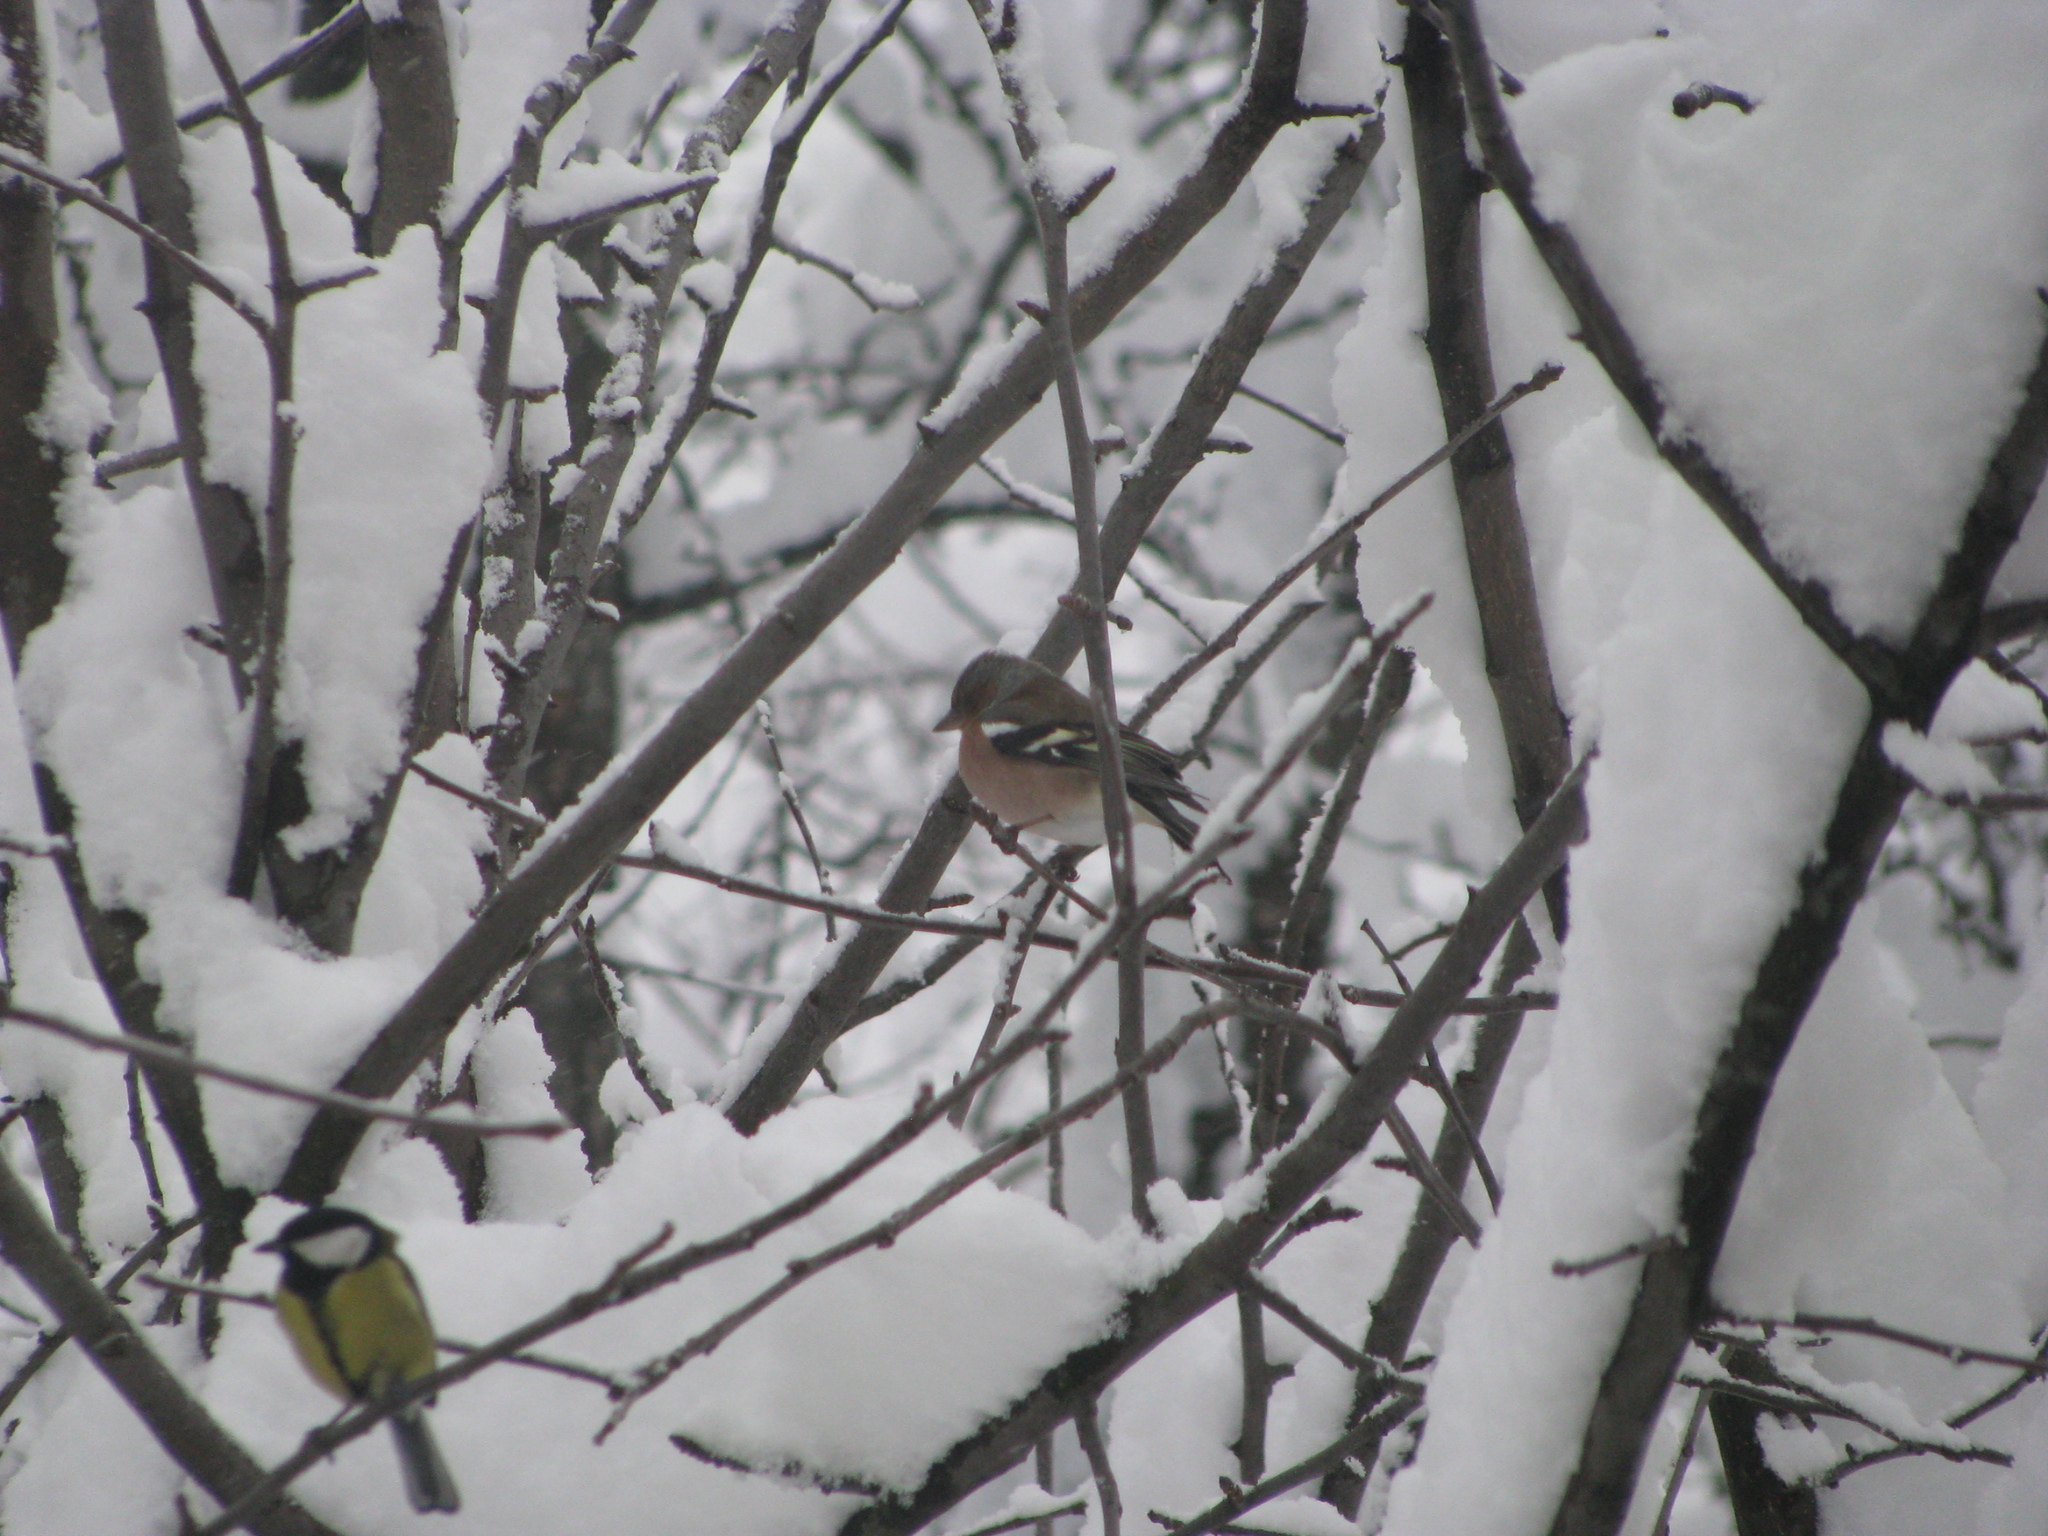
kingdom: Animalia
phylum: Chordata
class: Aves
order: Passeriformes
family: Fringillidae
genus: Fringilla
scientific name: Fringilla coelebs
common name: Common chaffinch
